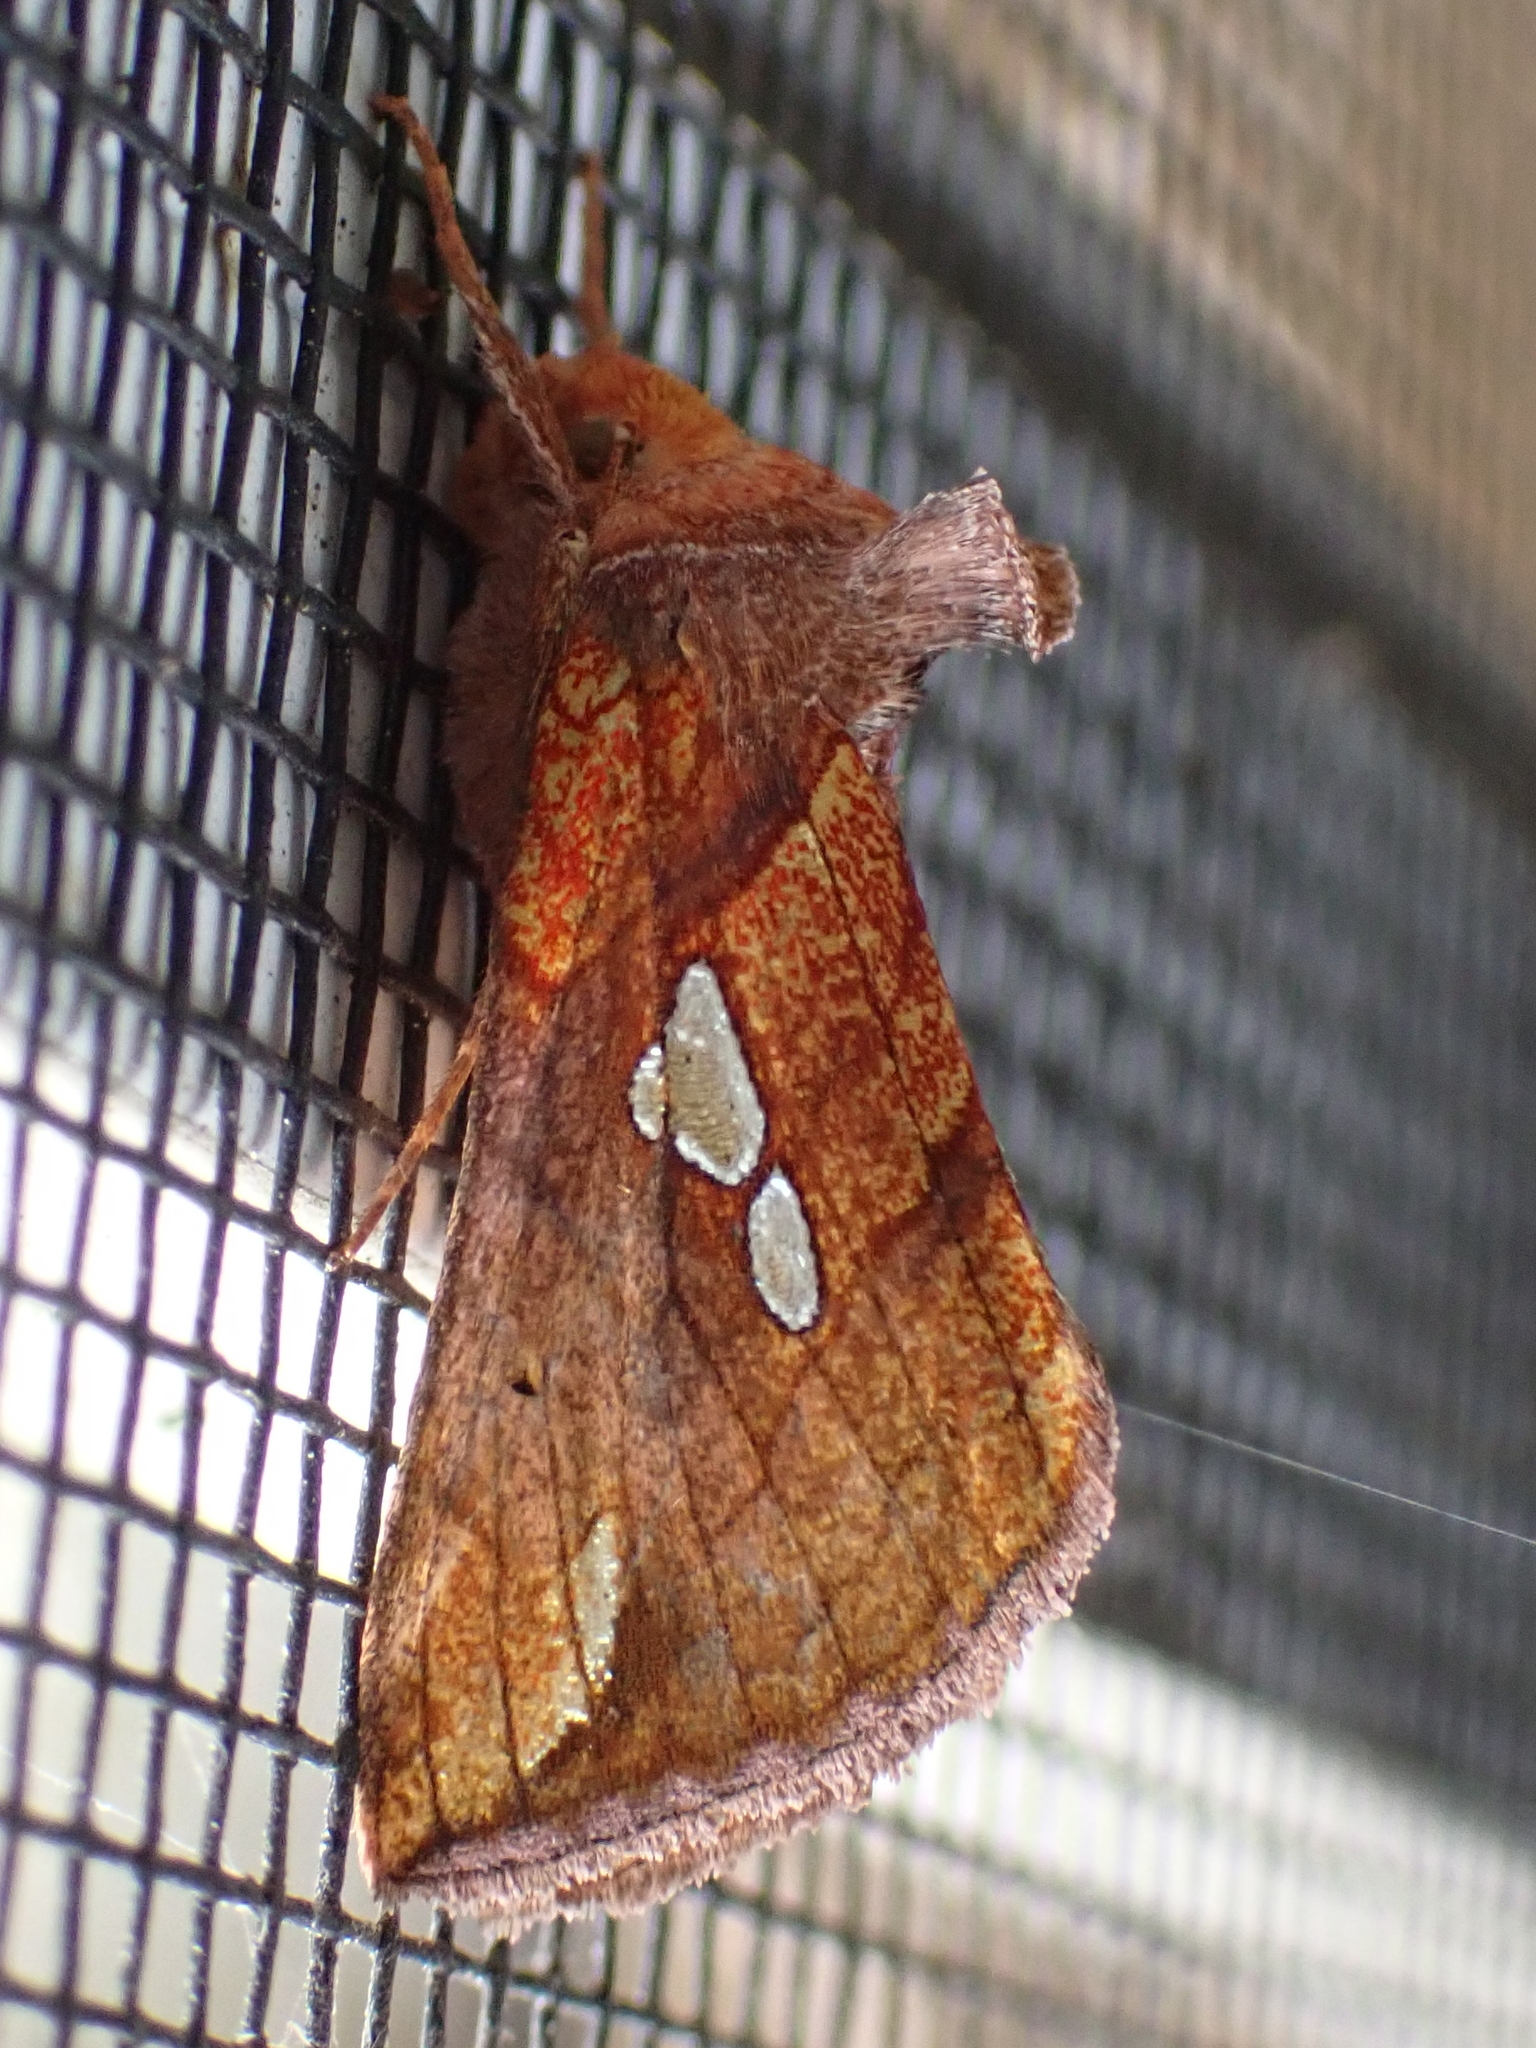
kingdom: Animalia
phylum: Arthropoda
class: Insecta
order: Lepidoptera
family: Noctuidae
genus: Plusia
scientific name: Plusia putnami
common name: Lempke's gold spot
